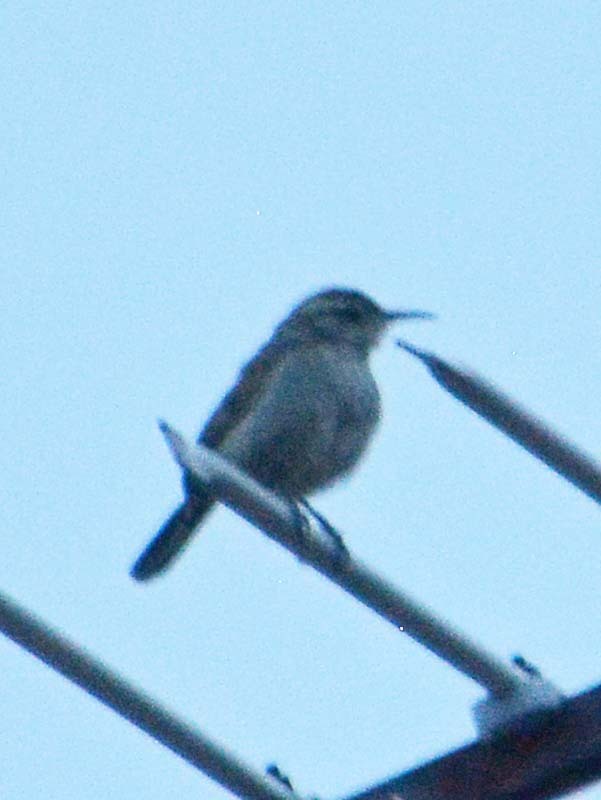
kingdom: Animalia
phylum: Chordata
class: Aves
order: Passeriformes
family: Troglodytidae
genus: Thryomanes
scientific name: Thryomanes bewickii
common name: Bewick's wren
